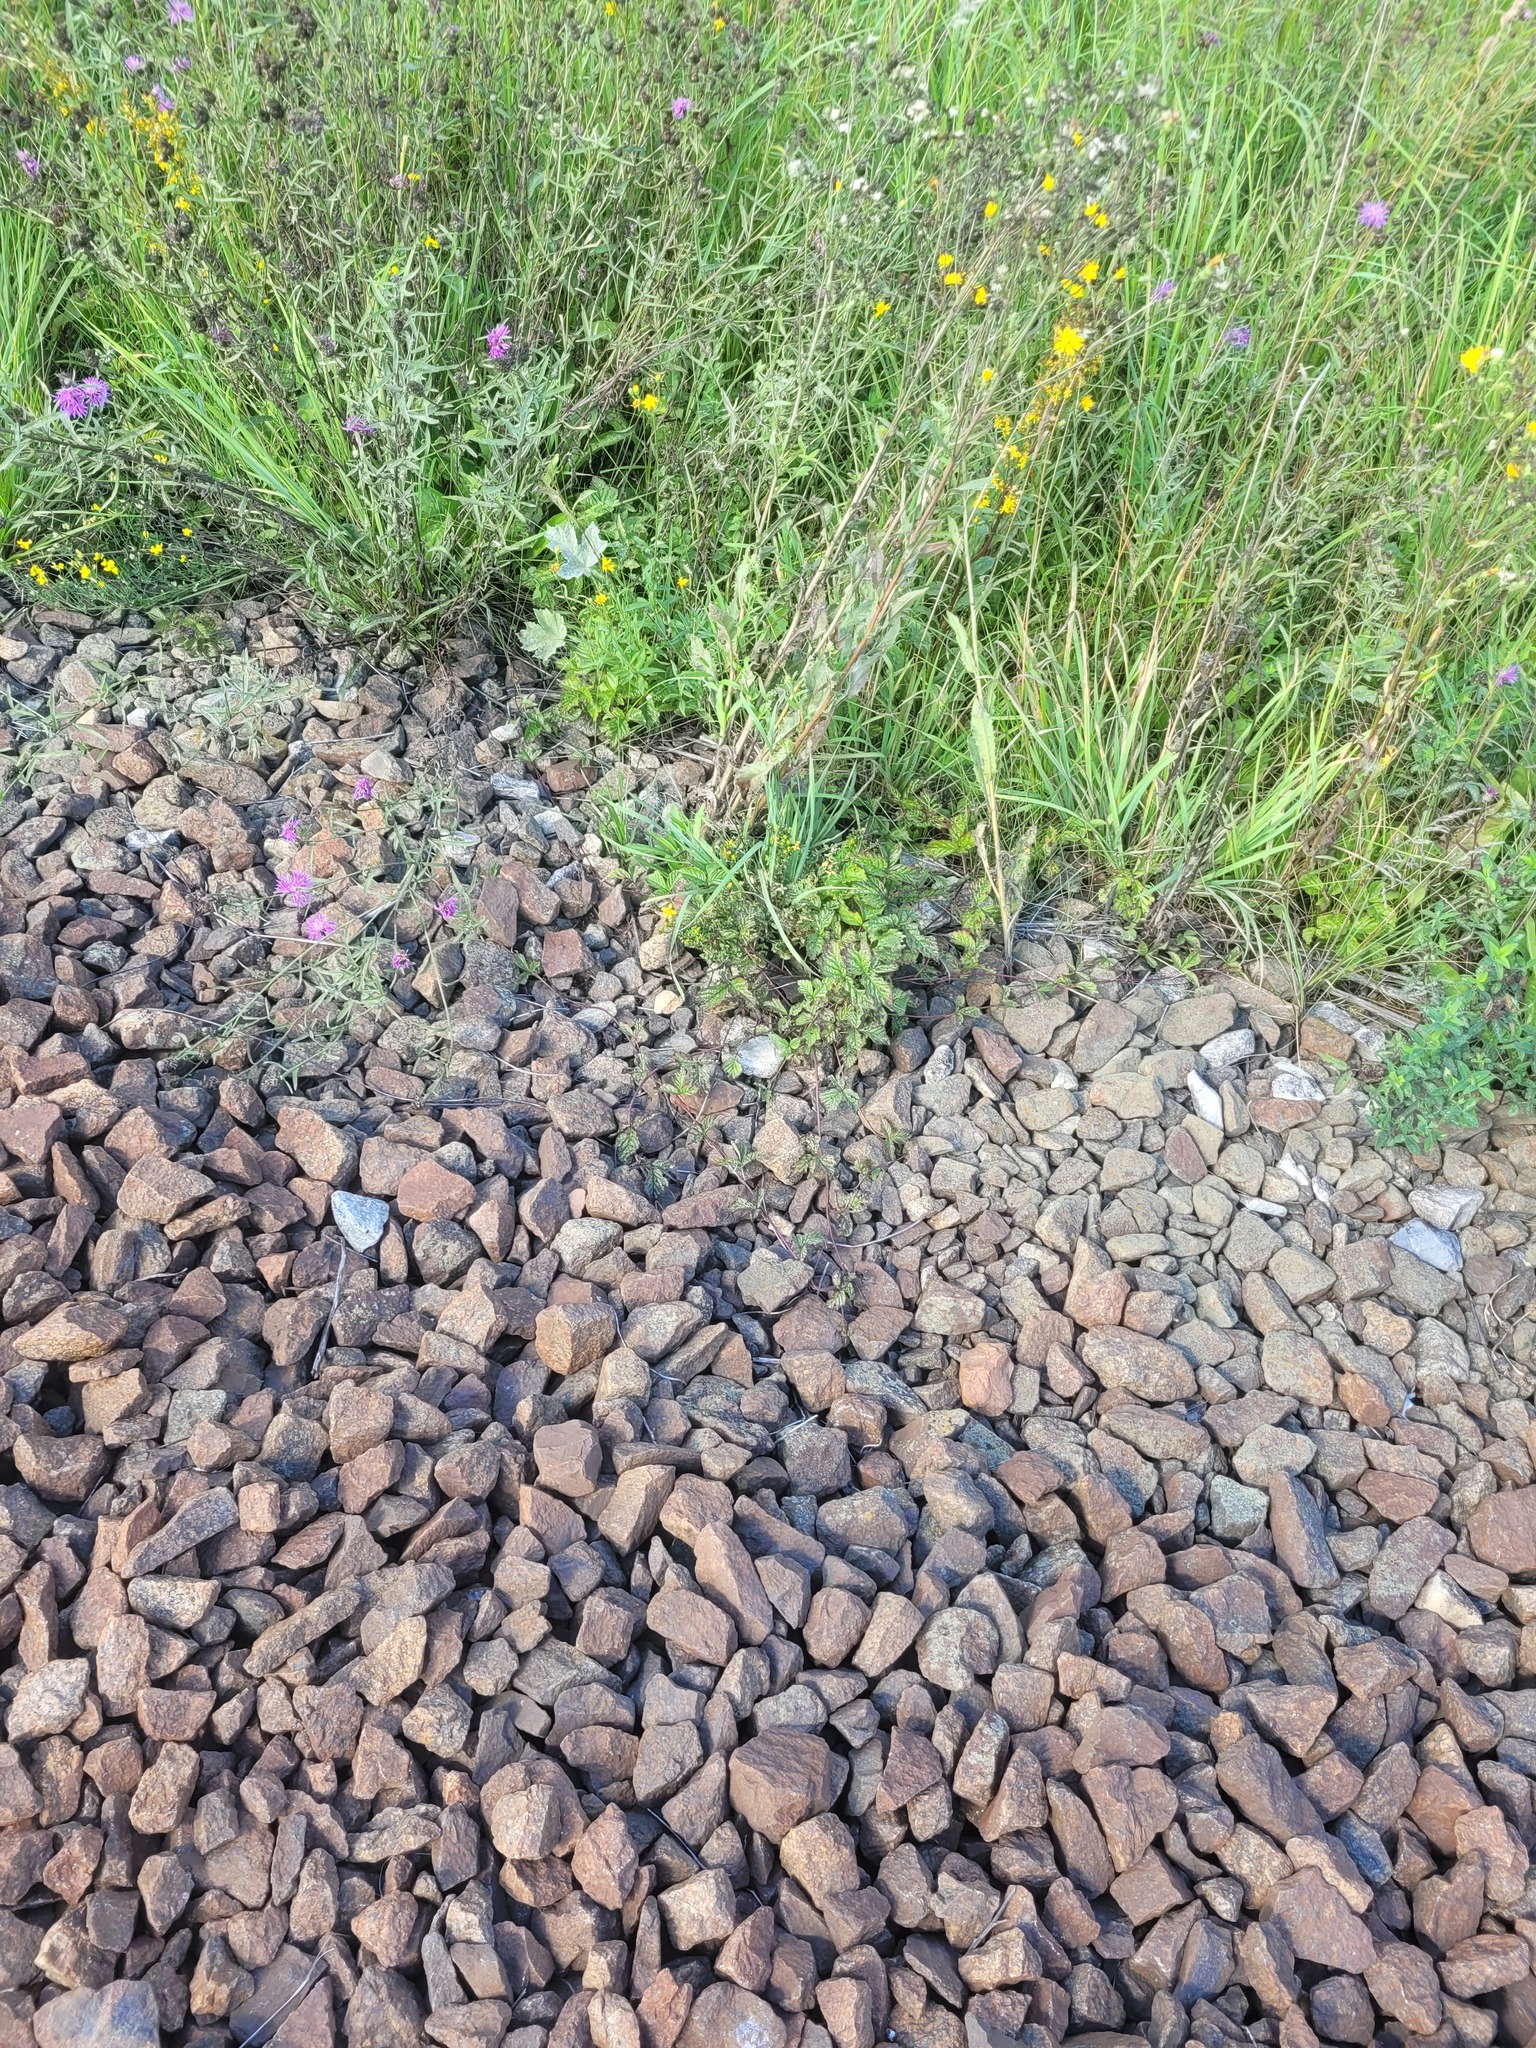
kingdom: Plantae
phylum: Tracheophyta
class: Magnoliopsida
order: Rosales
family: Rosaceae
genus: Rubus
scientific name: Rubus saxatilis
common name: Stone bramble
